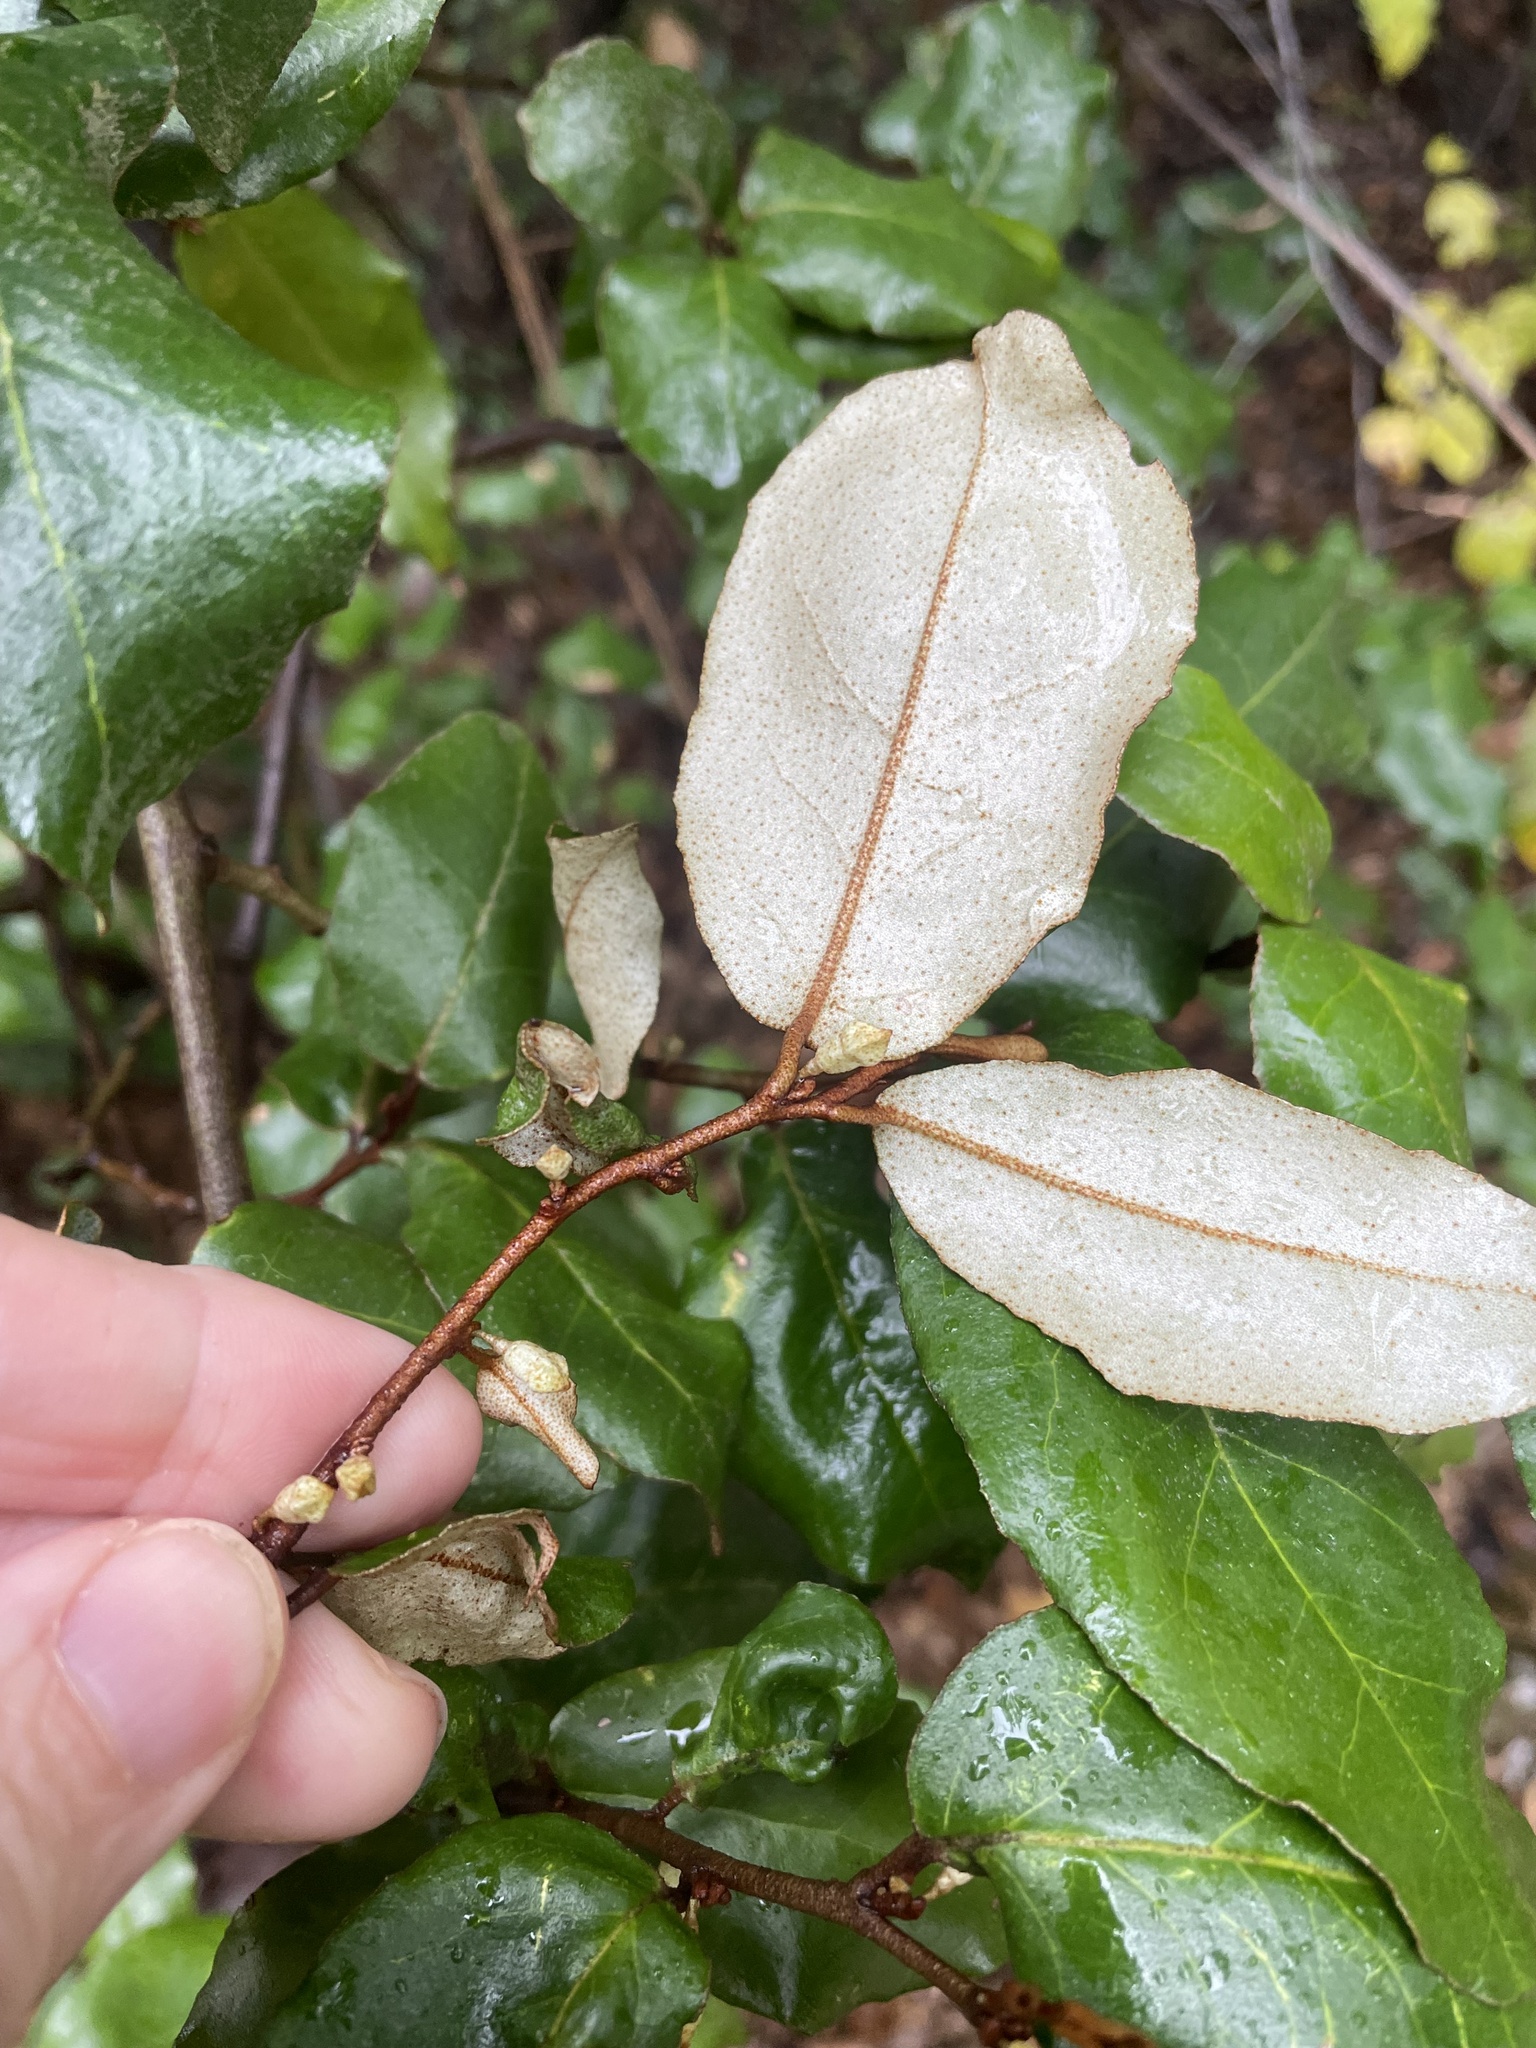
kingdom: Plantae
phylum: Tracheophyta
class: Magnoliopsida
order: Rosales
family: Elaeagnaceae
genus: Elaeagnus
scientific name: Elaeagnus pungens
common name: Spiny oleaster
